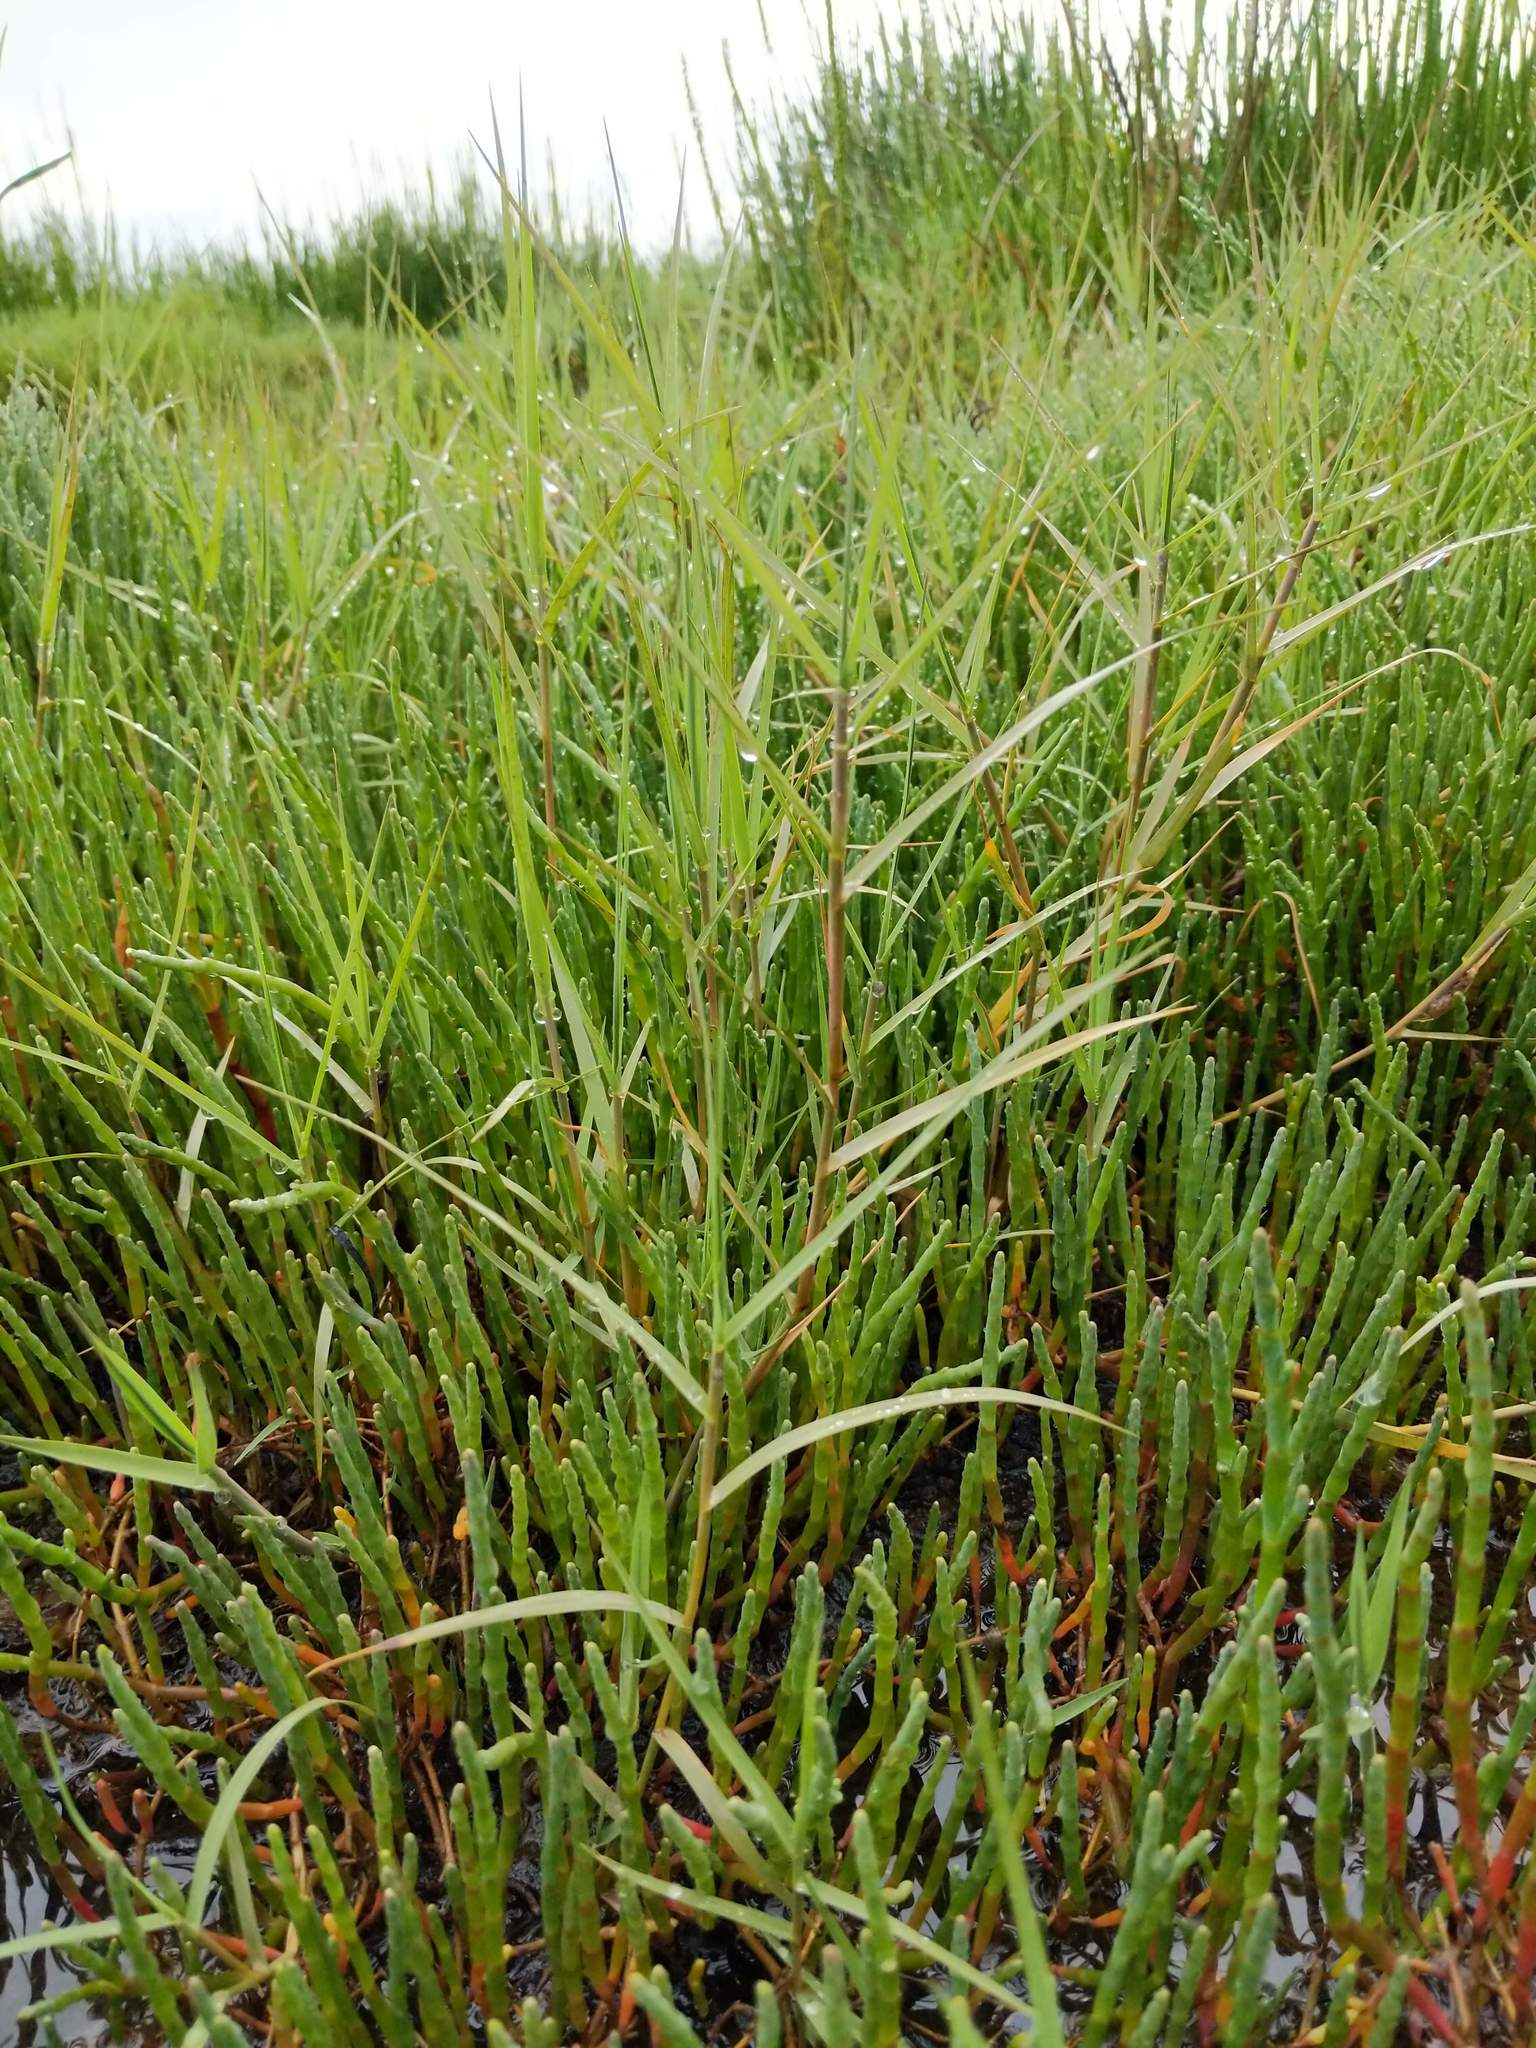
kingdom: Plantae
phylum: Tracheophyta
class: Liliopsida
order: Poales
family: Poaceae
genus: Distichlis
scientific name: Distichlis spicata
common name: Saltgrass
